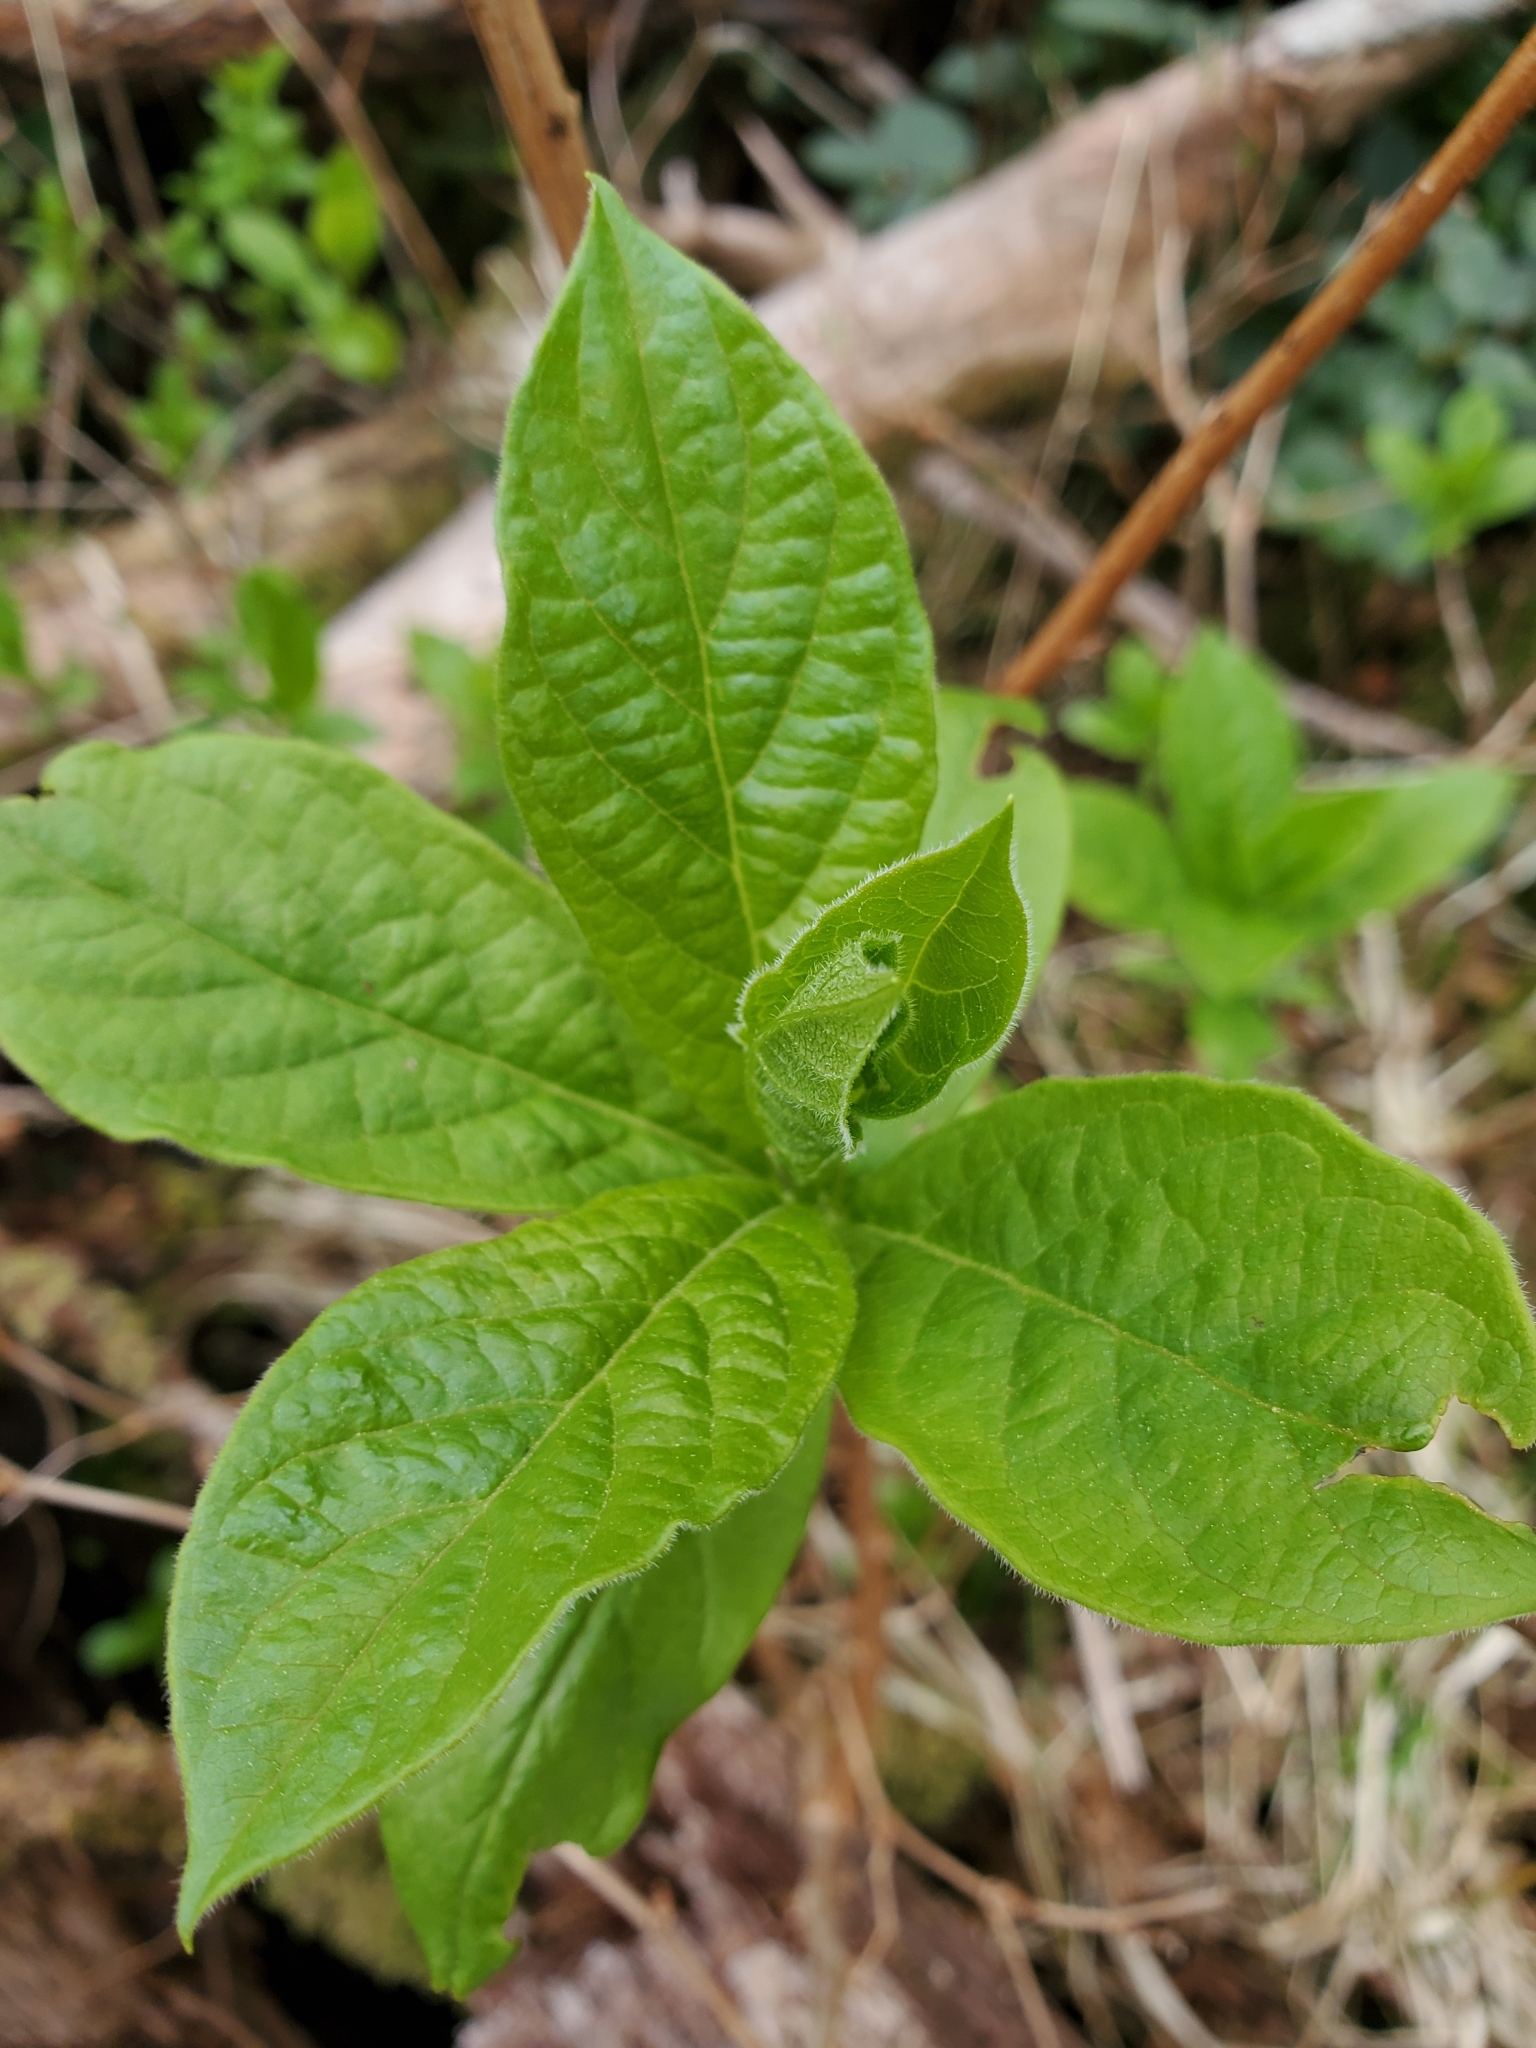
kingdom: Plantae
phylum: Tracheophyta
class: Magnoliopsida
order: Dipsacales
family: Caprifoliaceae
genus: Lonicera
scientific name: Lonicera involucrata
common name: Californian honeysuckle
